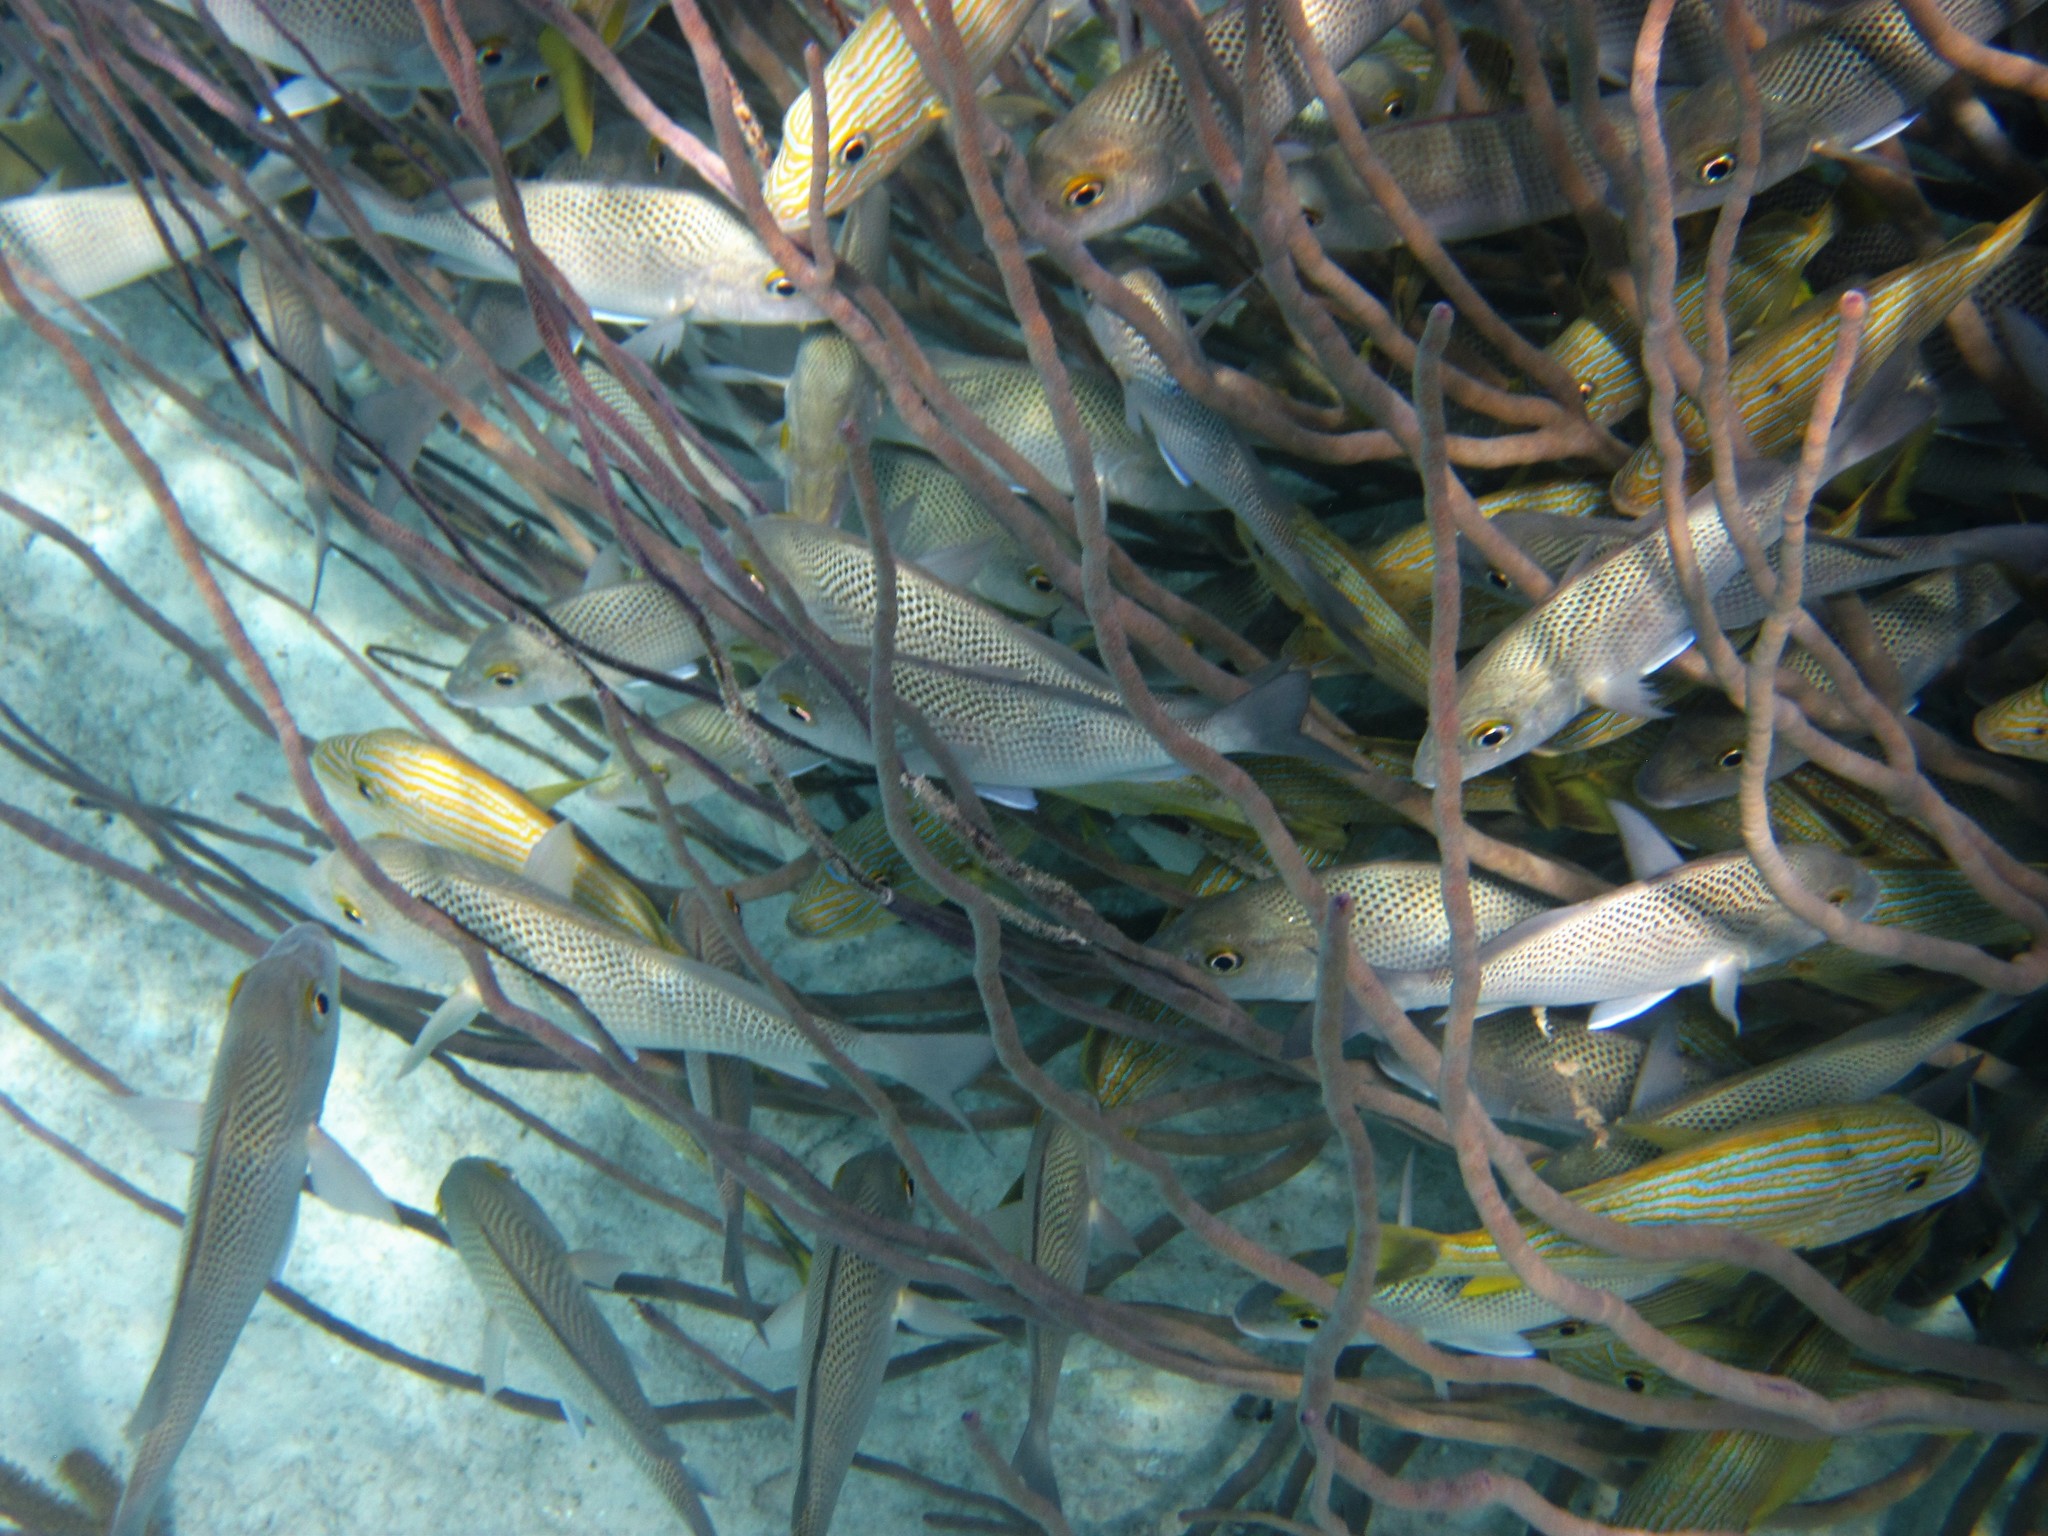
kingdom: Animalia
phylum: Chordata
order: Perciformes
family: Haemulidae
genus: Haemulon
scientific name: Haemulon sciurus
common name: Bluestriped grunt
